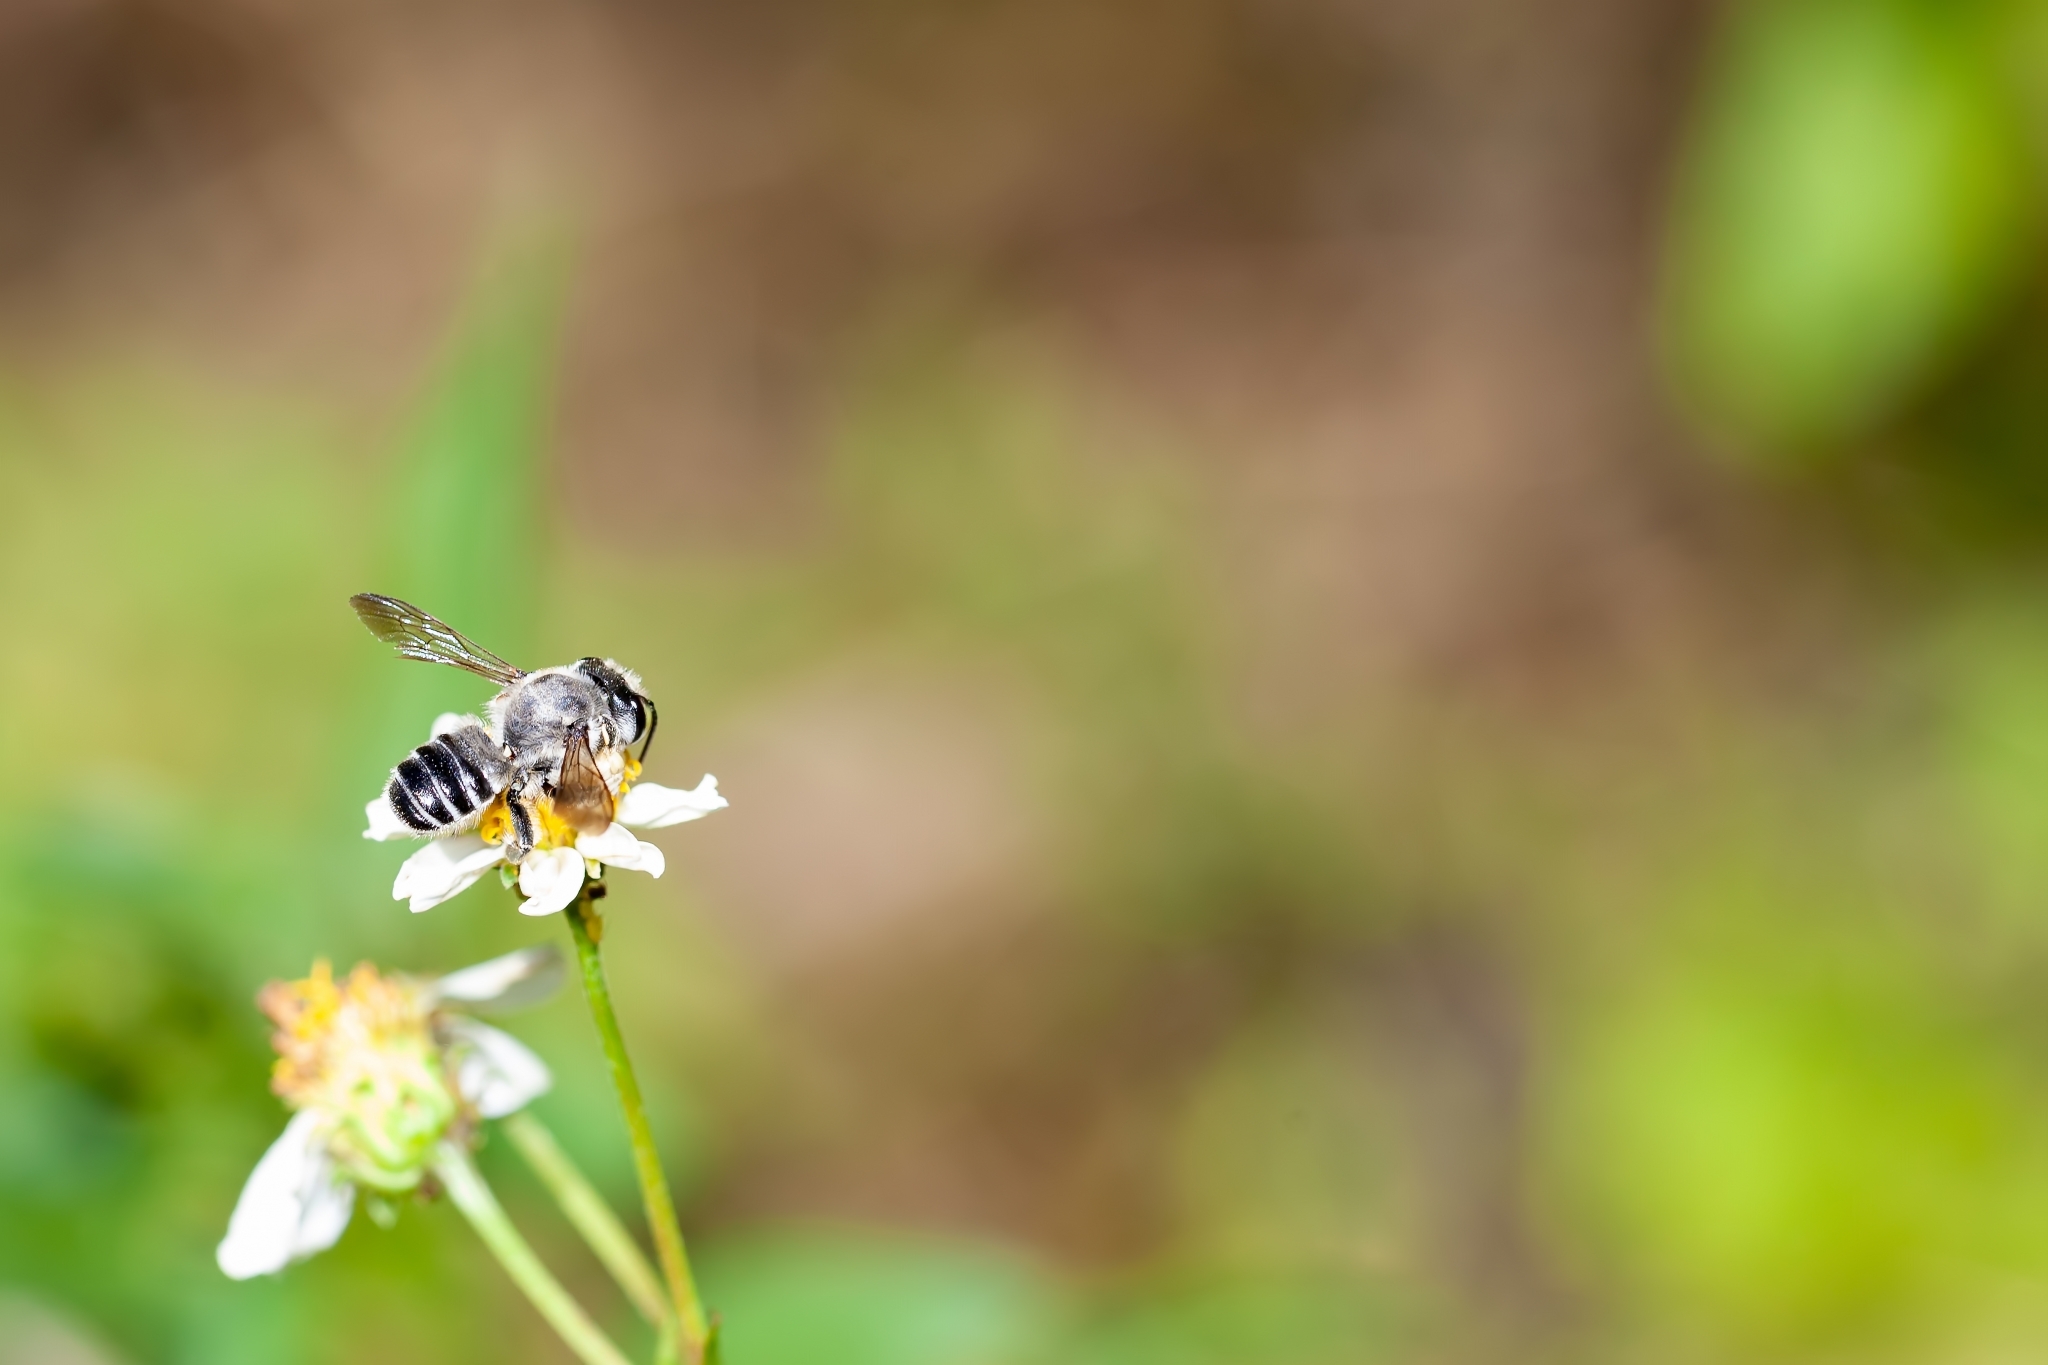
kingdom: Animalia
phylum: Arthropoda
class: Insecta
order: Hymenoptera
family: Megachilidae
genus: Megachile
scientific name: Megachile pruina
